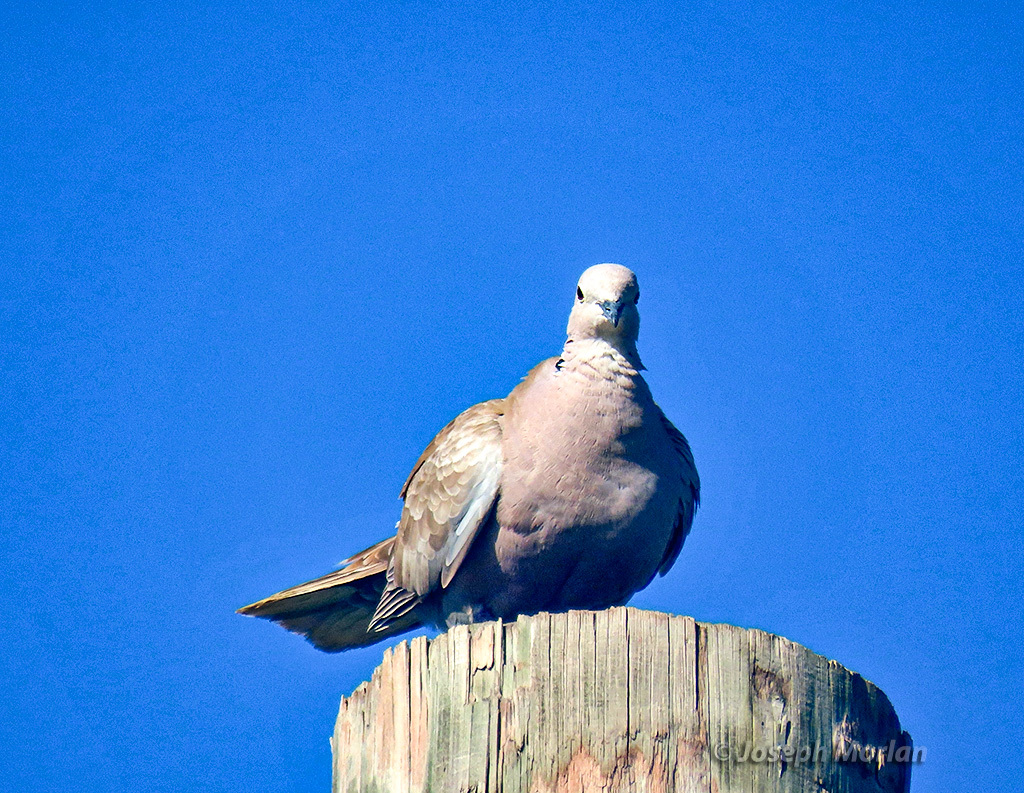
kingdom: Animalia
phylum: Chordata
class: Aves
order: Columbiformes
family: Columbidae
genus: Streptopelia
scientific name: Streptopelia decaocto
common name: Eurasian collared dove
